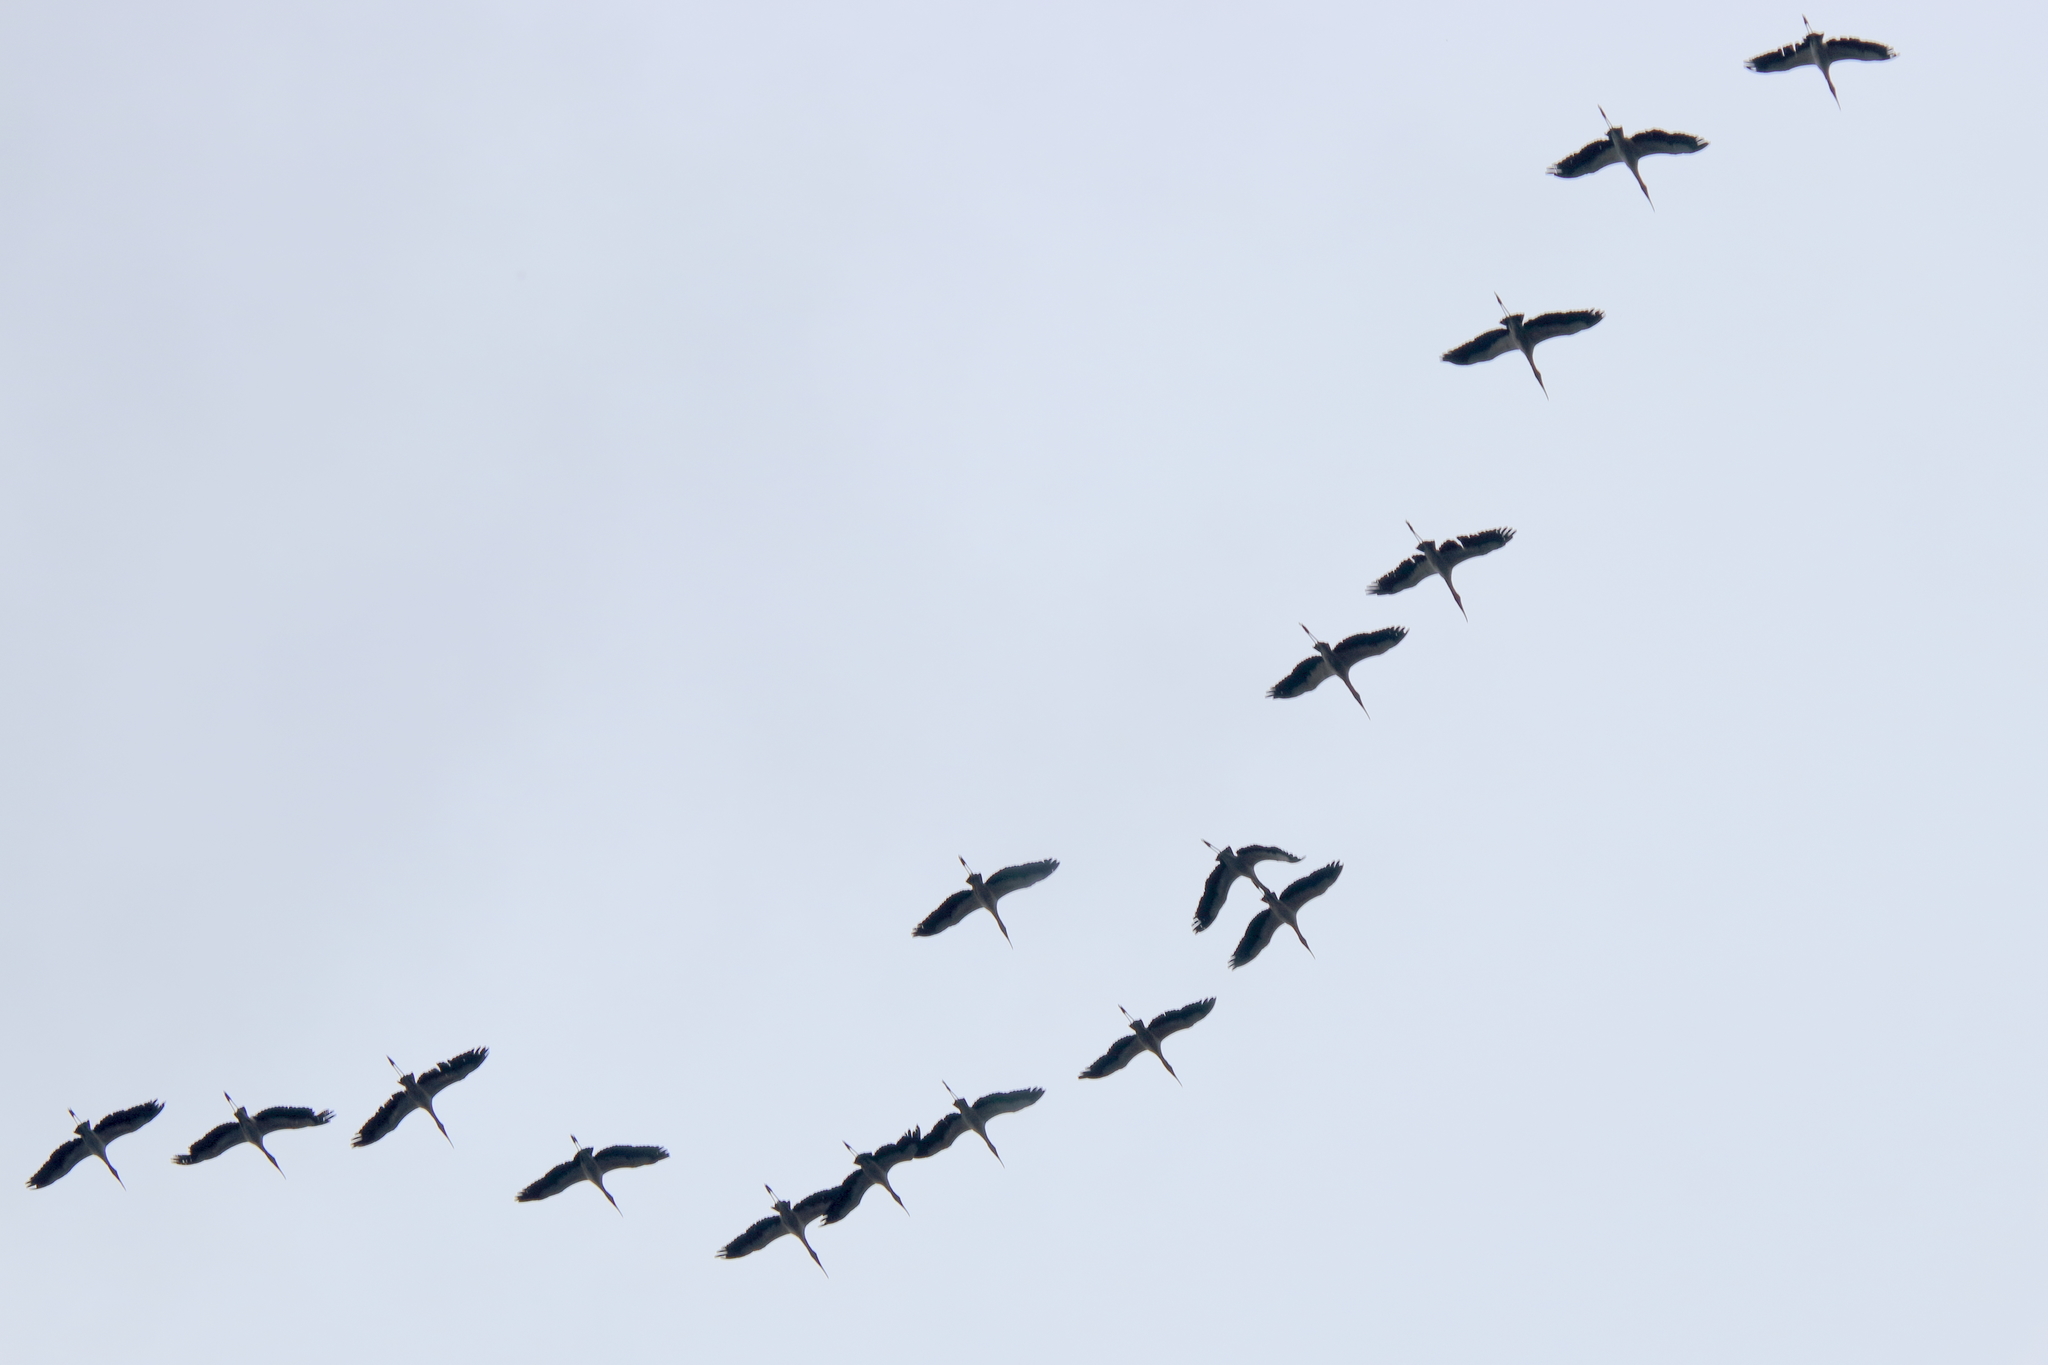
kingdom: Animalia
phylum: Chordata
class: Aves
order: Ciconiiformes
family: Ciconiidae
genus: Mycteria
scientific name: Mycteria americana
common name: Wood stork
